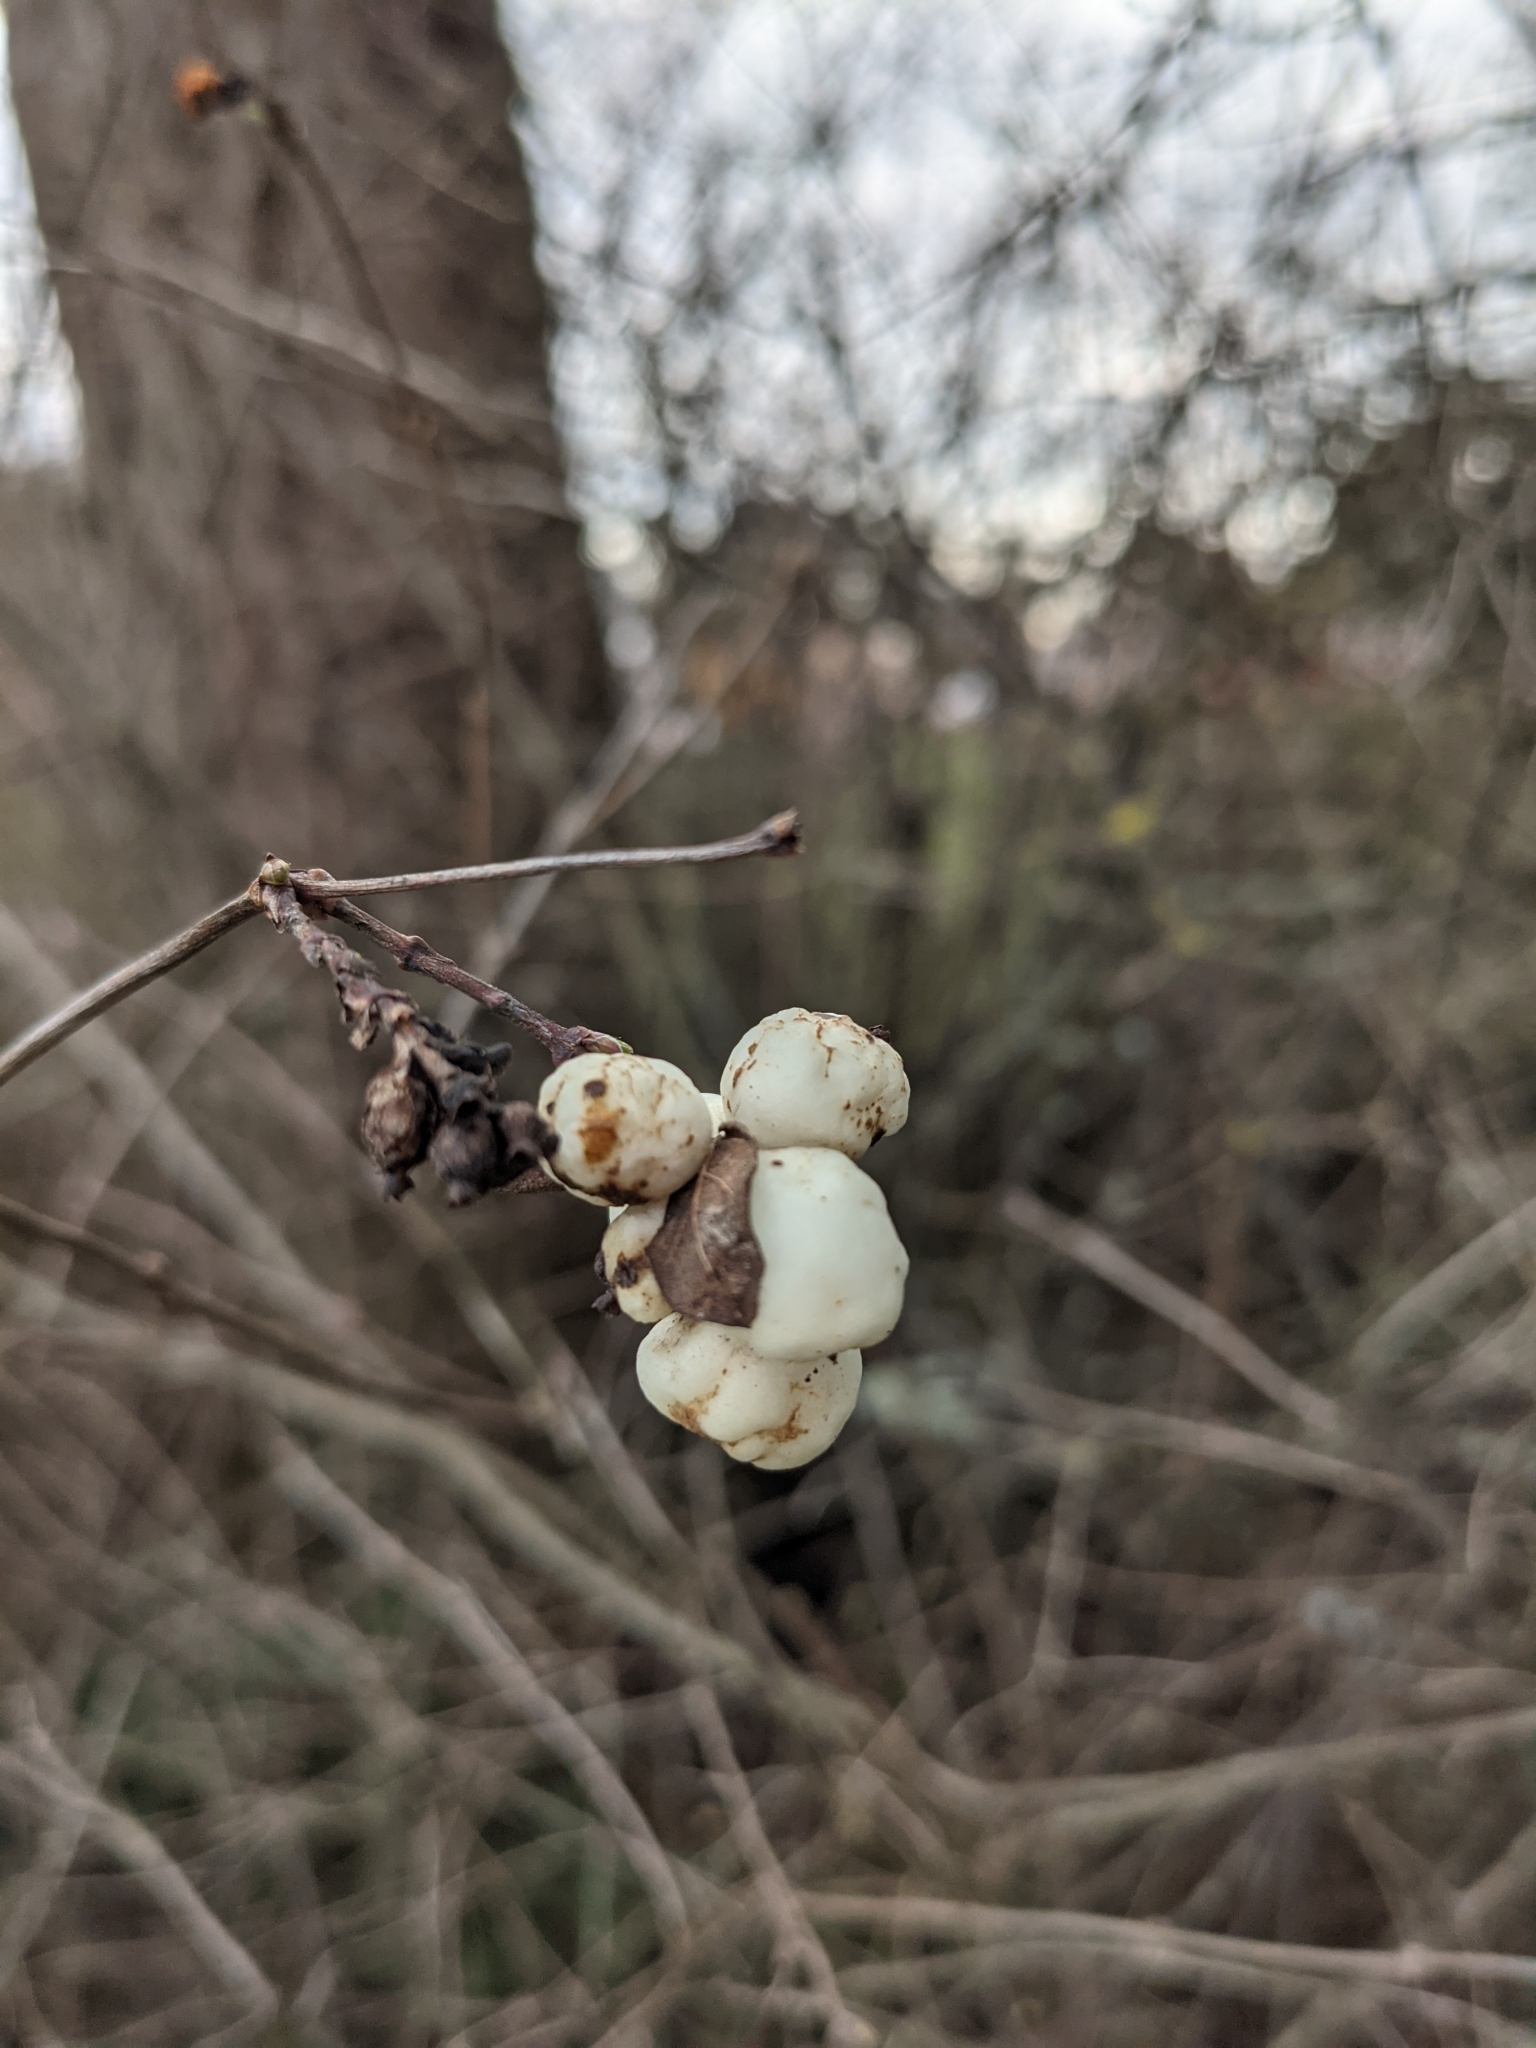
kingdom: Plantae
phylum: Tracheophyta
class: Magnoliopsida
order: Dipsacales
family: Caprifoliaceae
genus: Symphoricarpos
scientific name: Symphoricarpos albus
